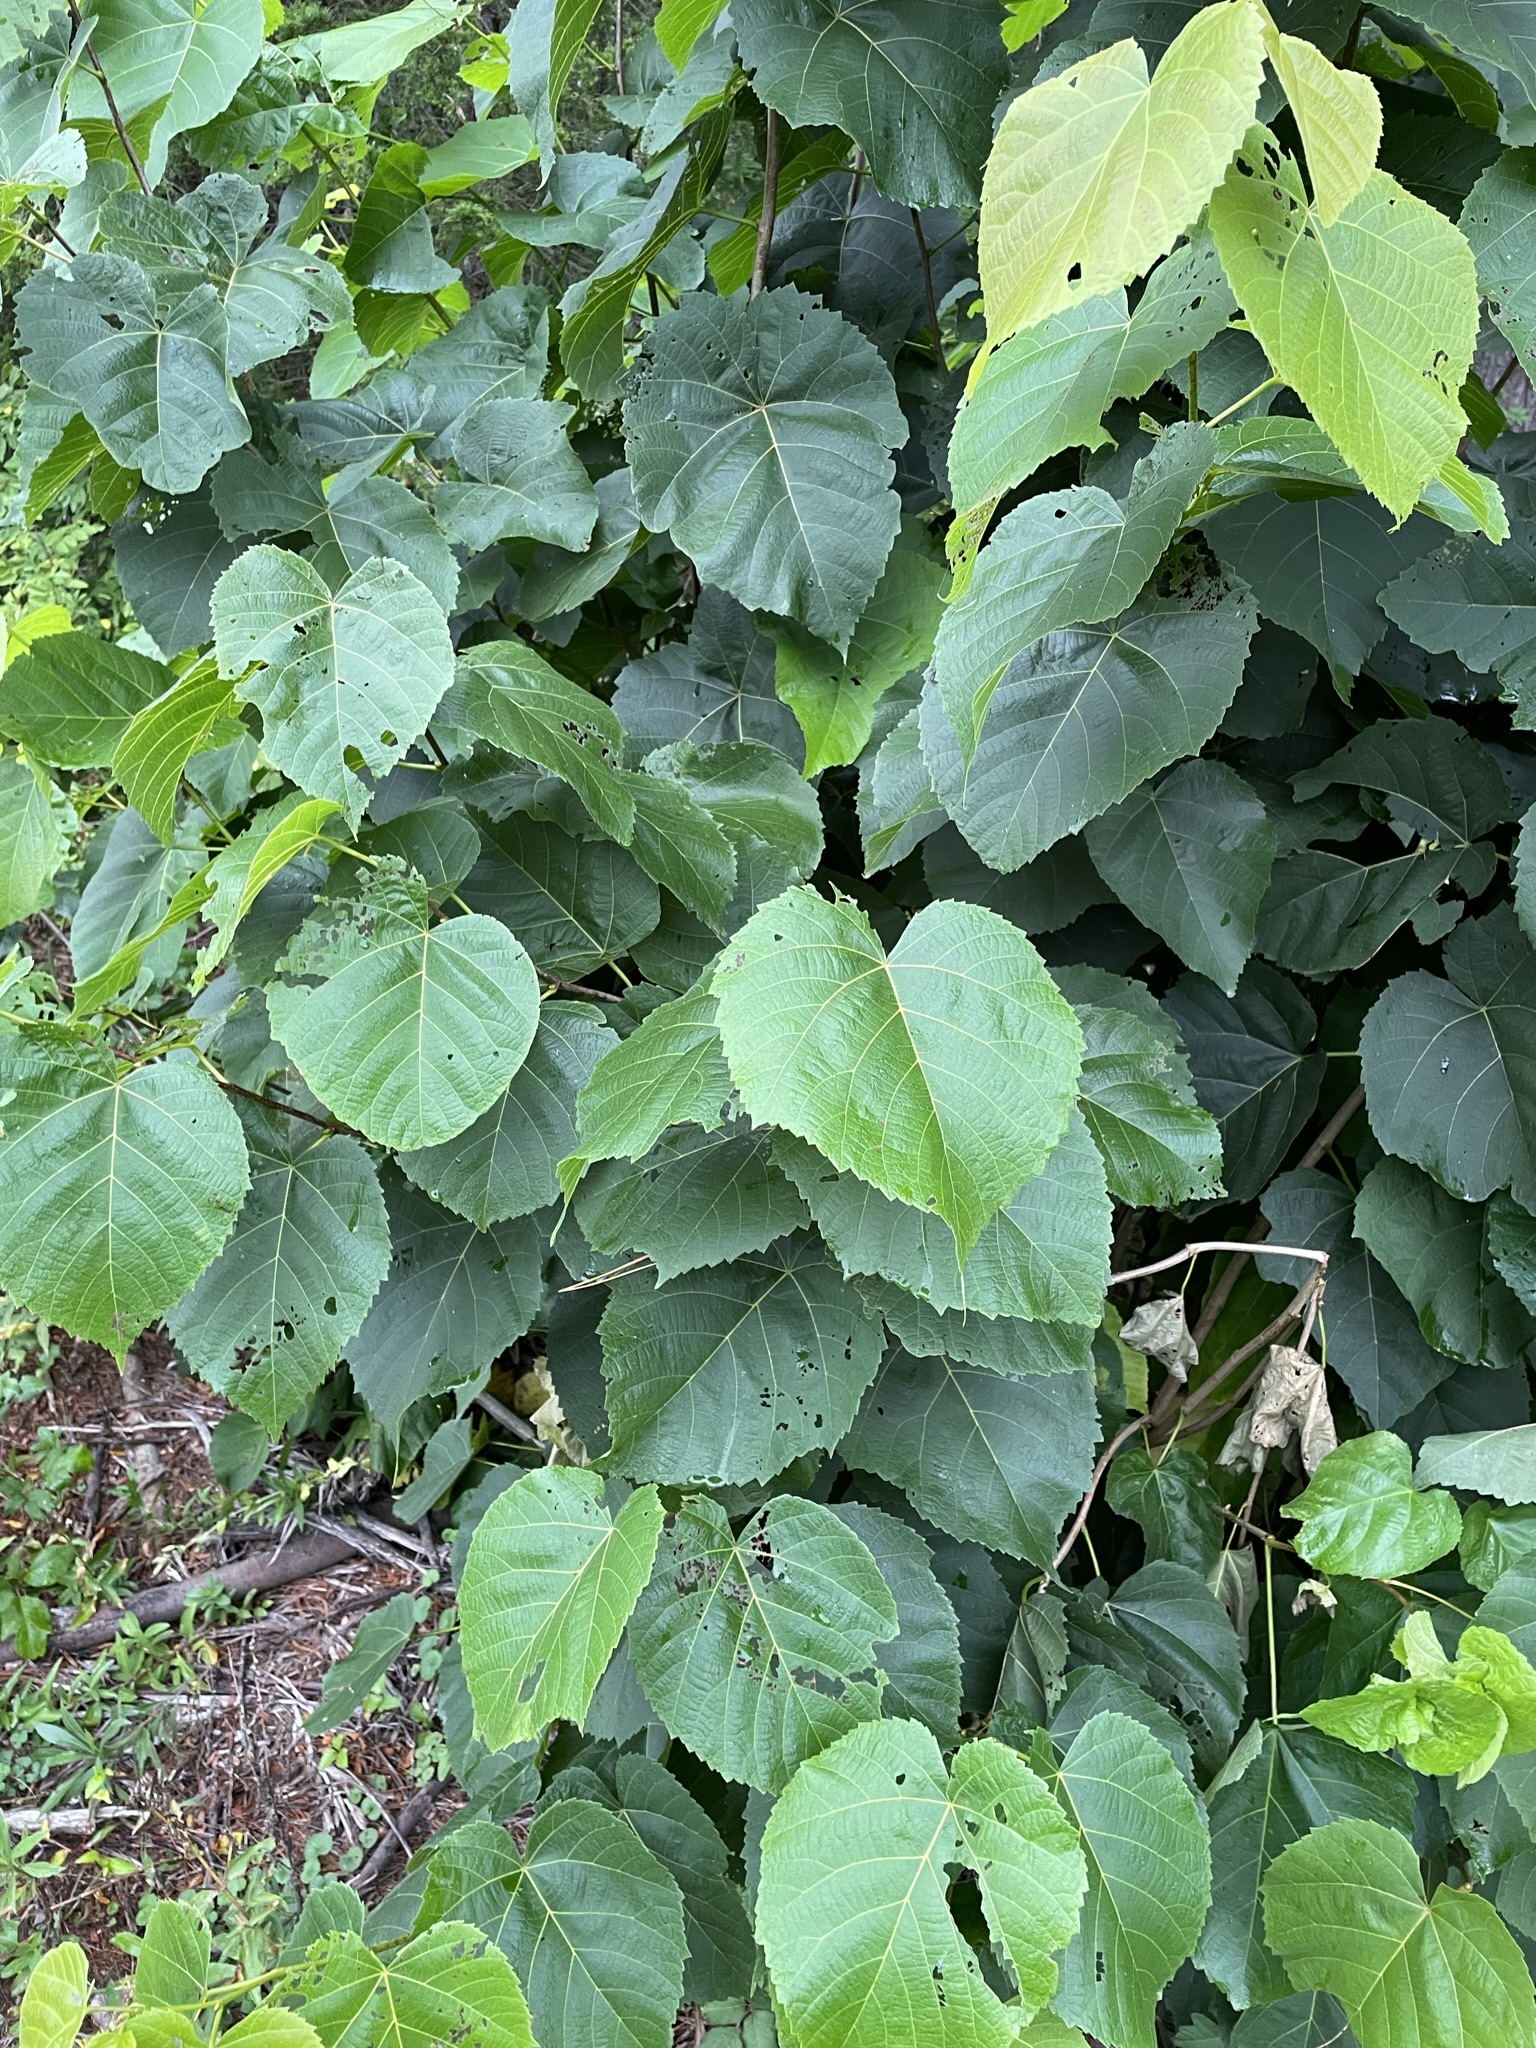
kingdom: Plantae
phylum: Tracheophyta
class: Magnoliopsida
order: Malvales
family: Malvaceae
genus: Tilia
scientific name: Tilia americana
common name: Basswood
